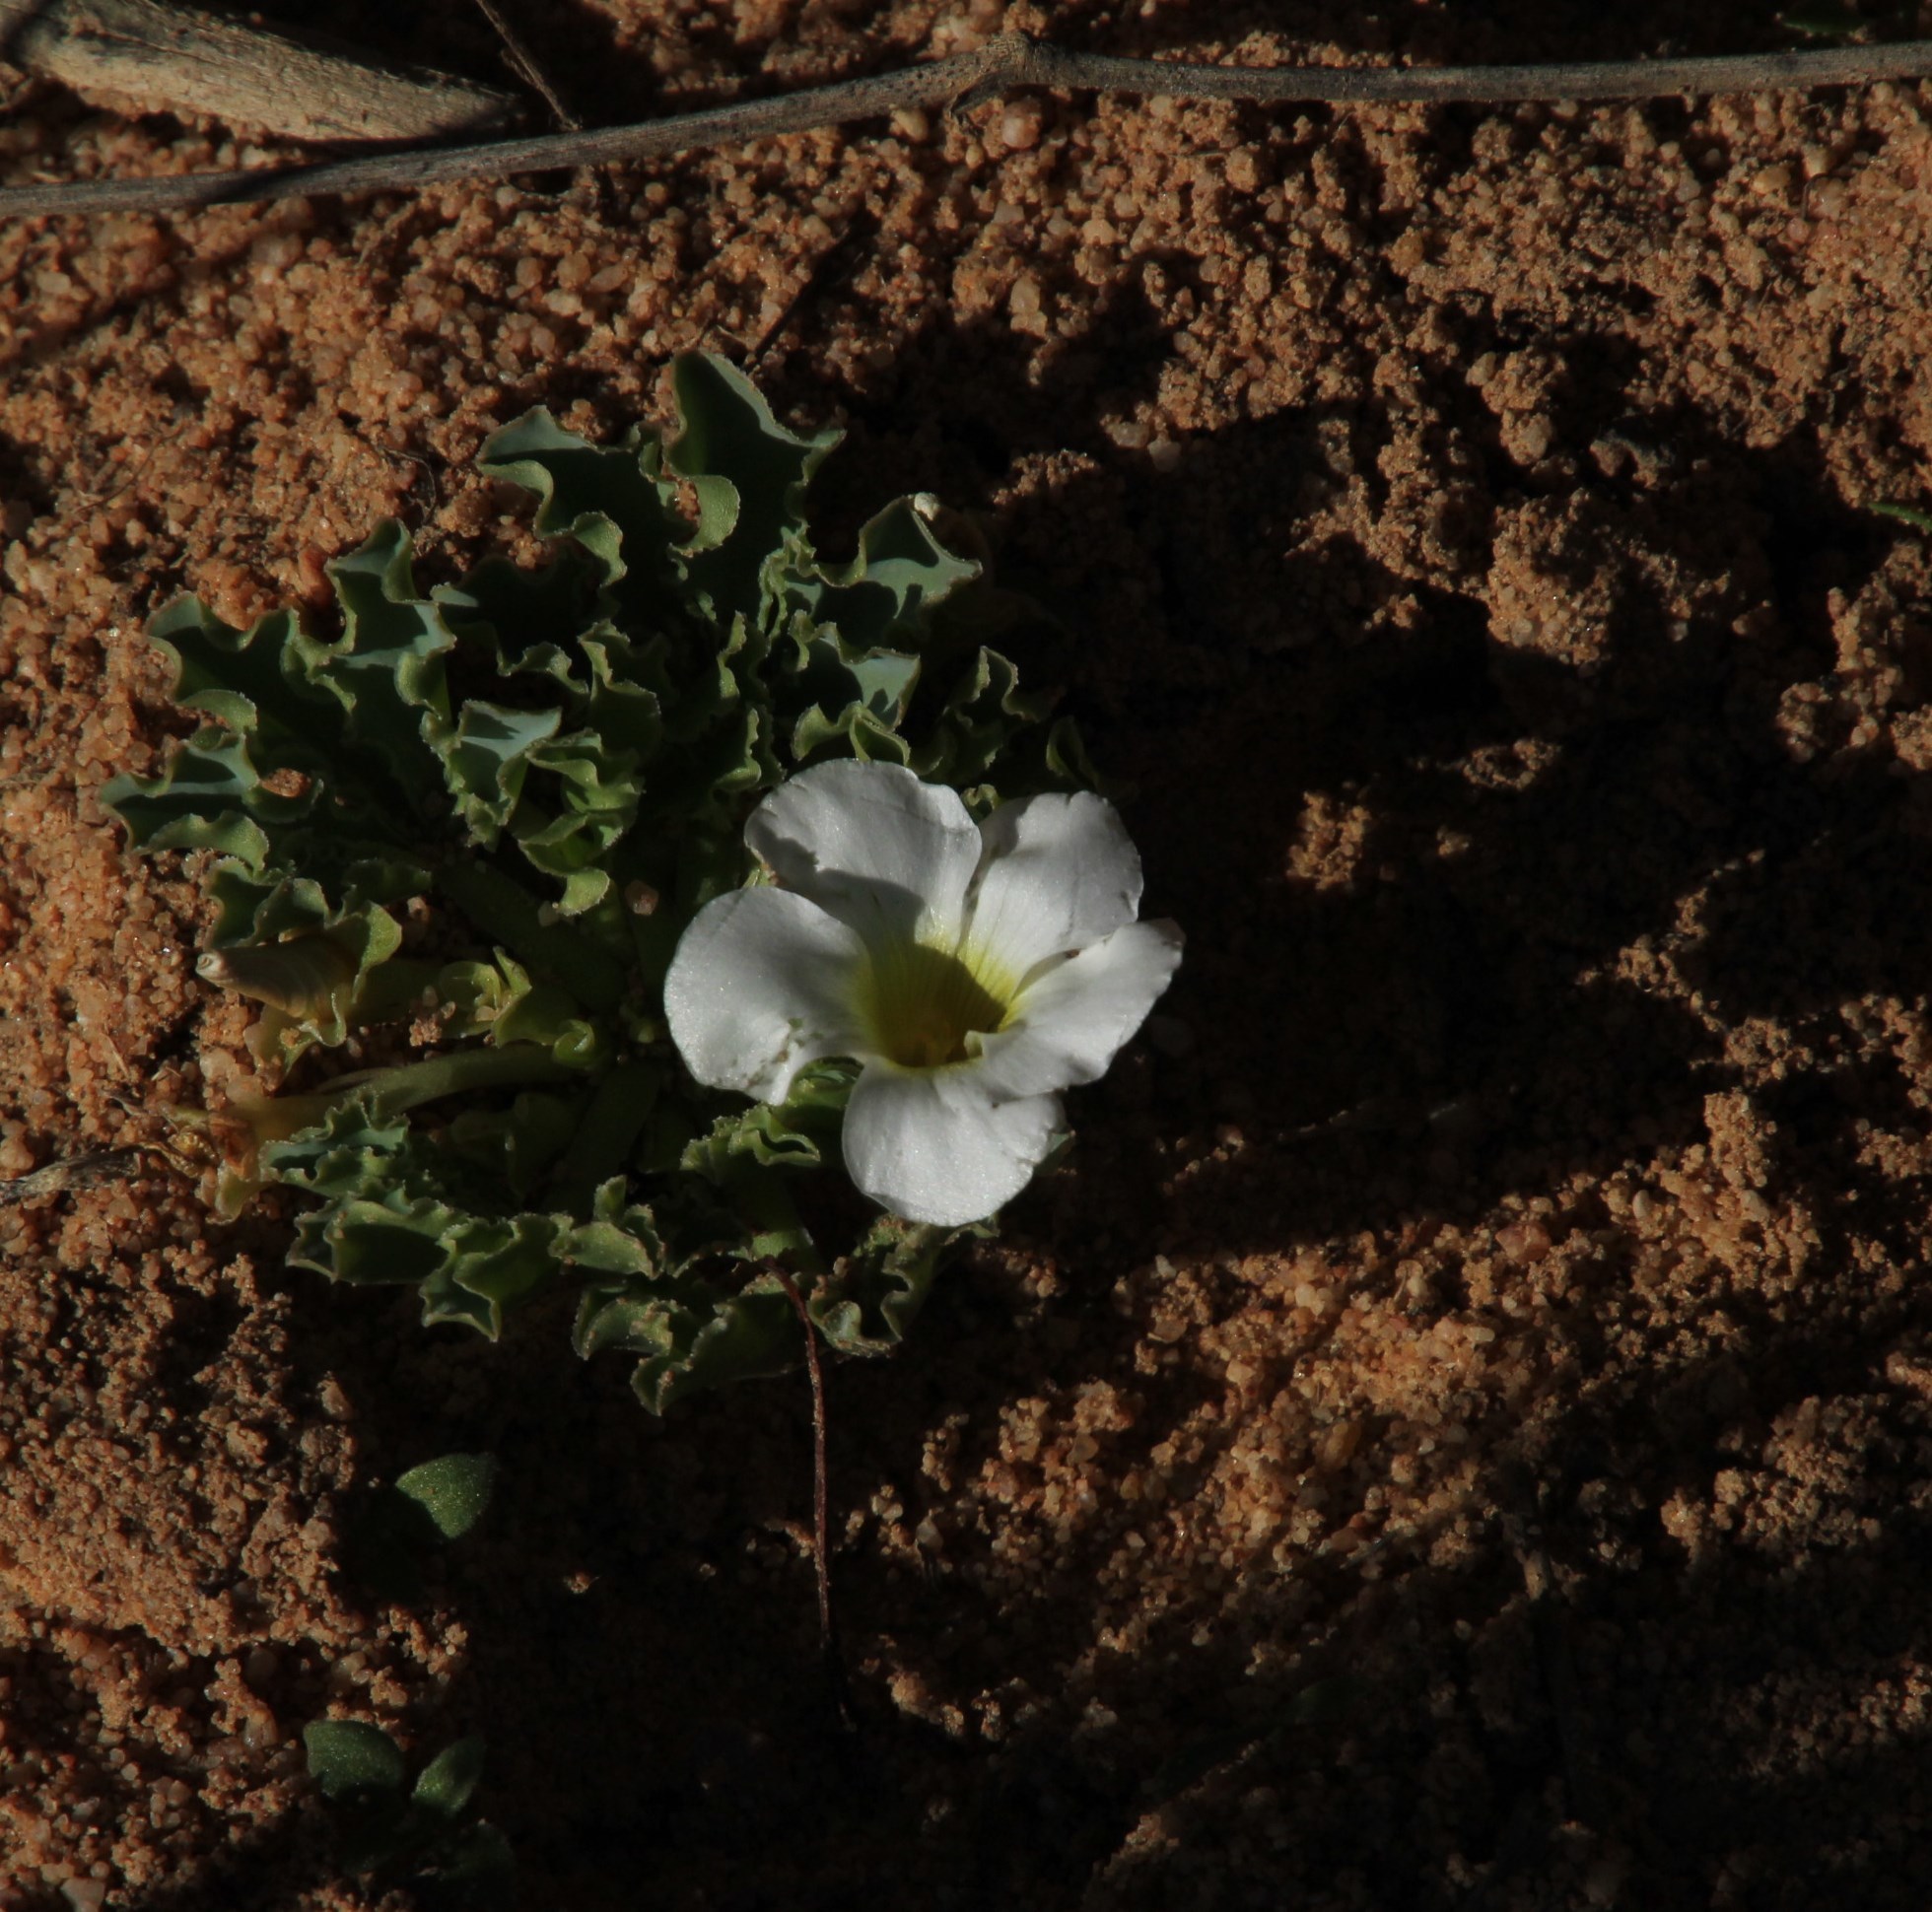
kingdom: Plantae
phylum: Tracheophyta
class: Magnoliopsida
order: Oxalidales
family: Oxalidaceae
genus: Oxalis
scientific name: Oxalis flava
